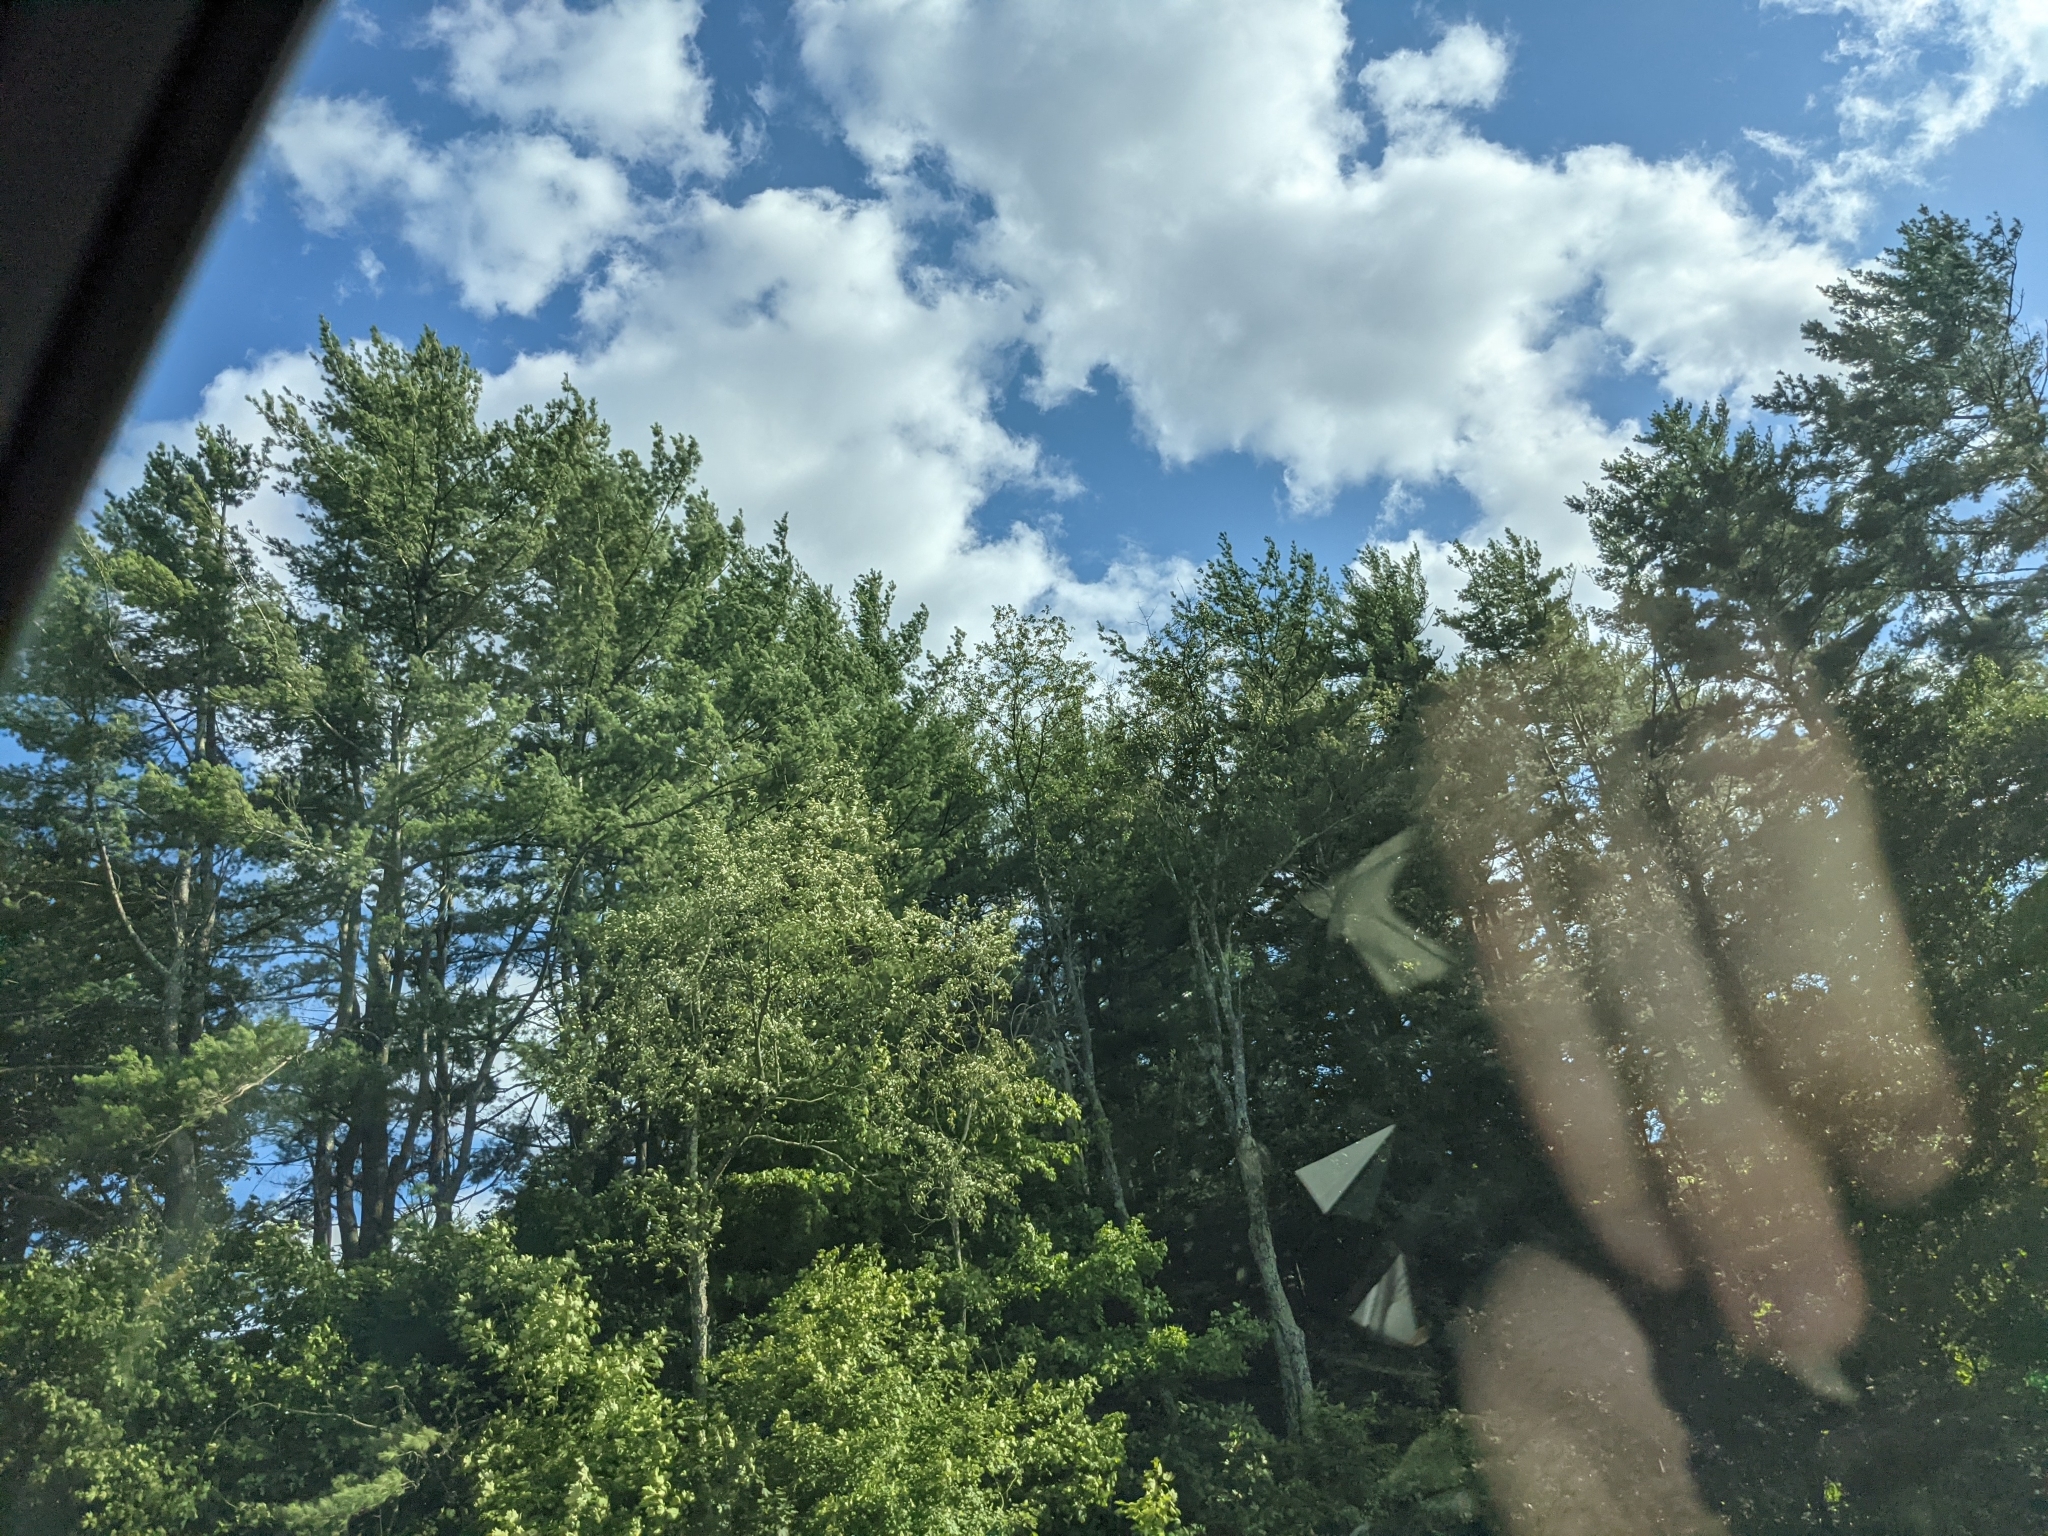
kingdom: Plantae
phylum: Tracheophyta
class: Pinopsida
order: Pinales
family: Pinaceae
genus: Pinus
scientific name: Pinus strobus
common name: Weymouth pine
